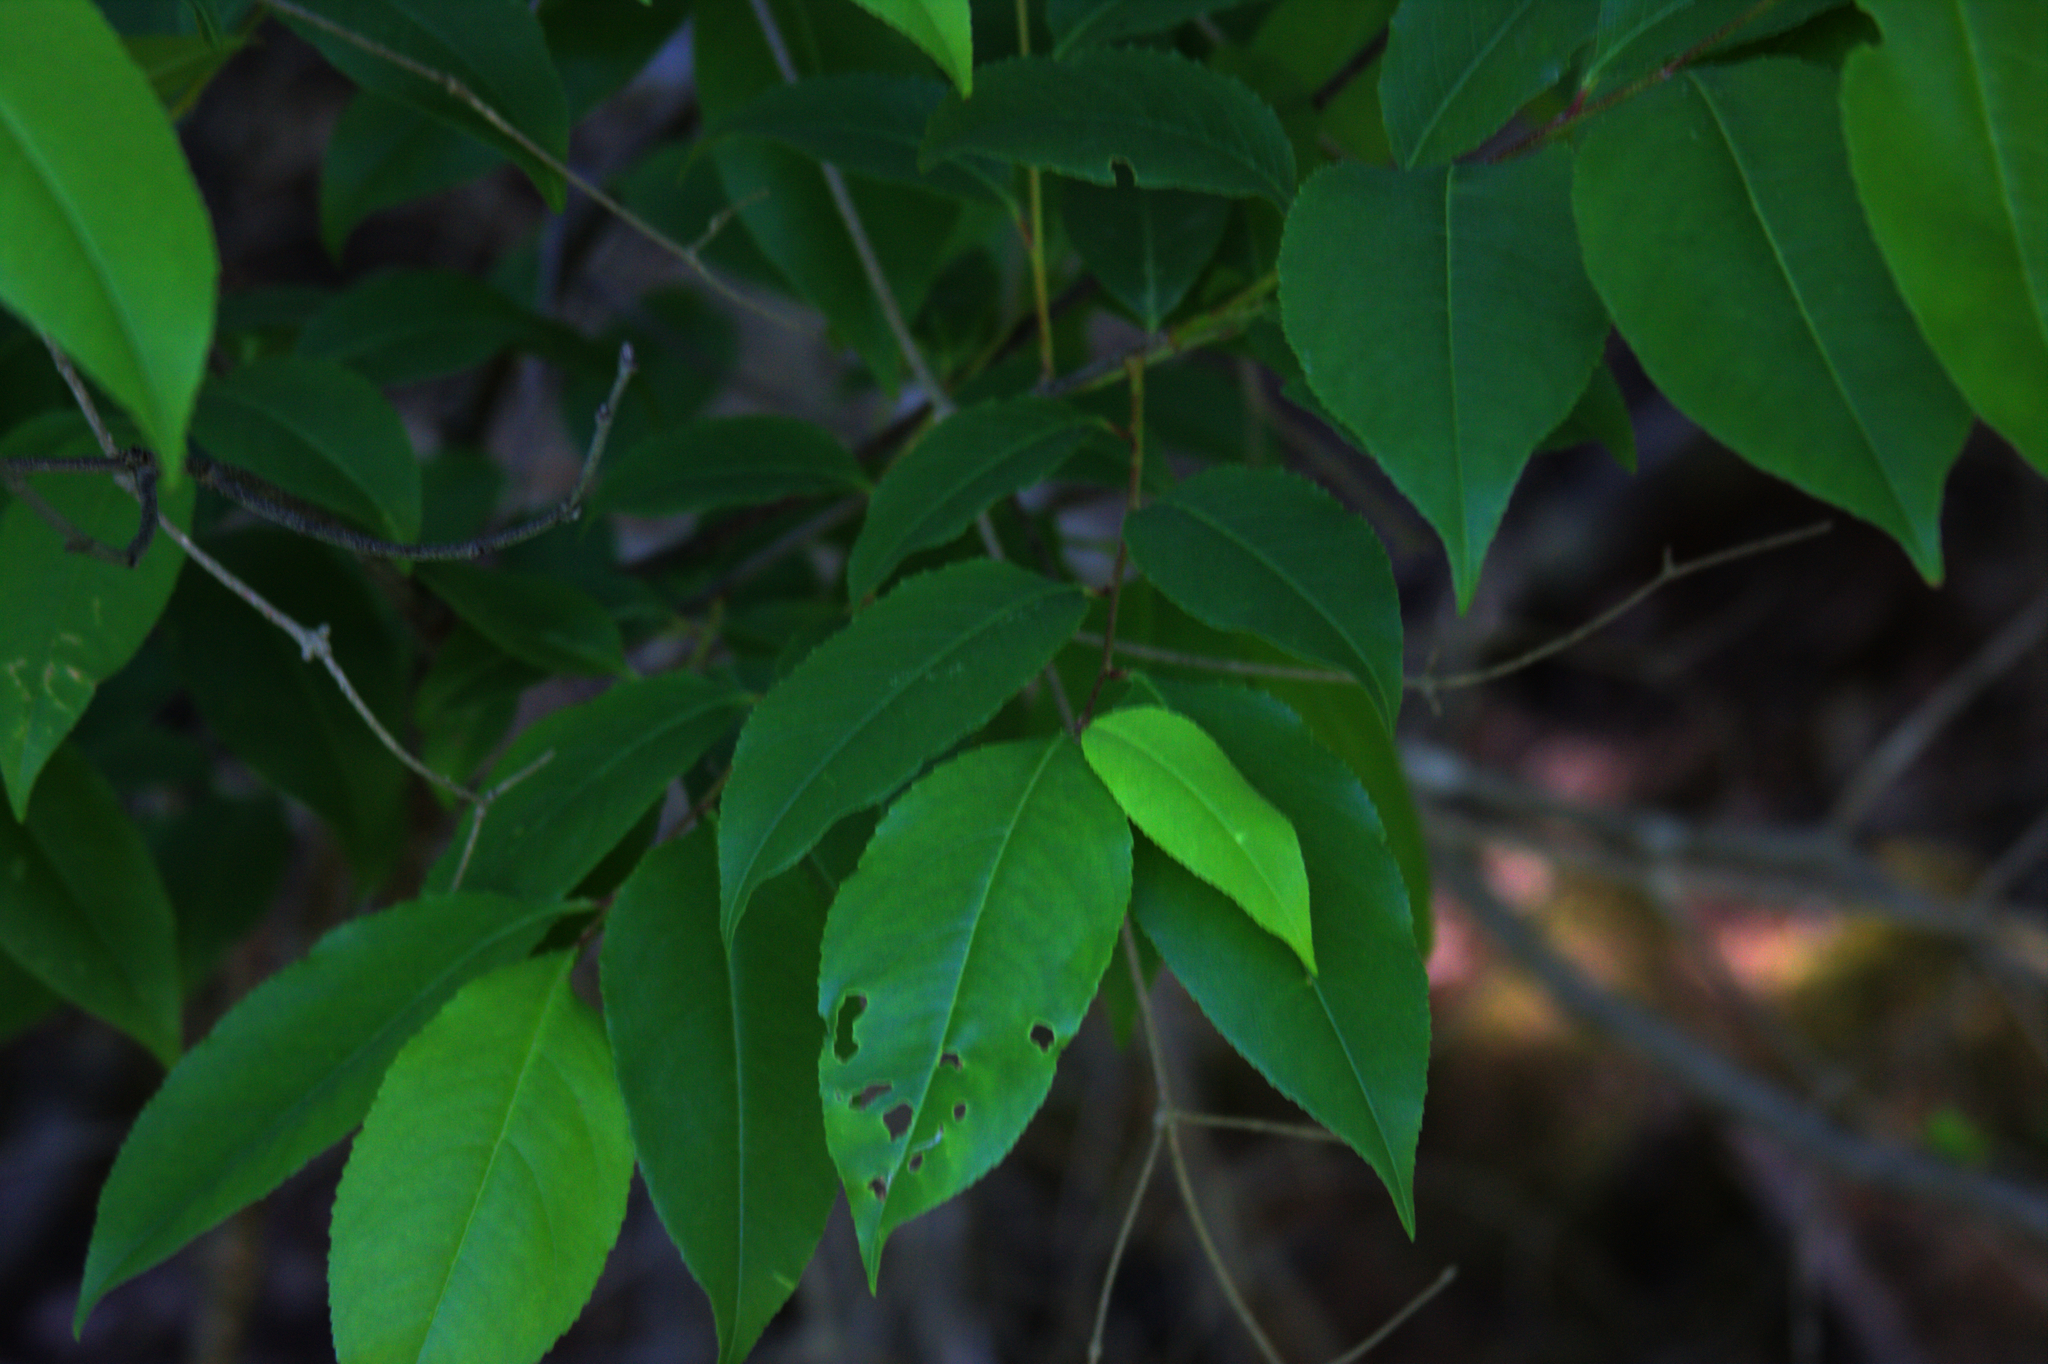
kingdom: Plantae
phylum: Tracheophyta
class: Magnoliopsida
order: Rosales
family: Rosaceae
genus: Prunus
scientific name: Prunus serotina
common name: Black cherry
